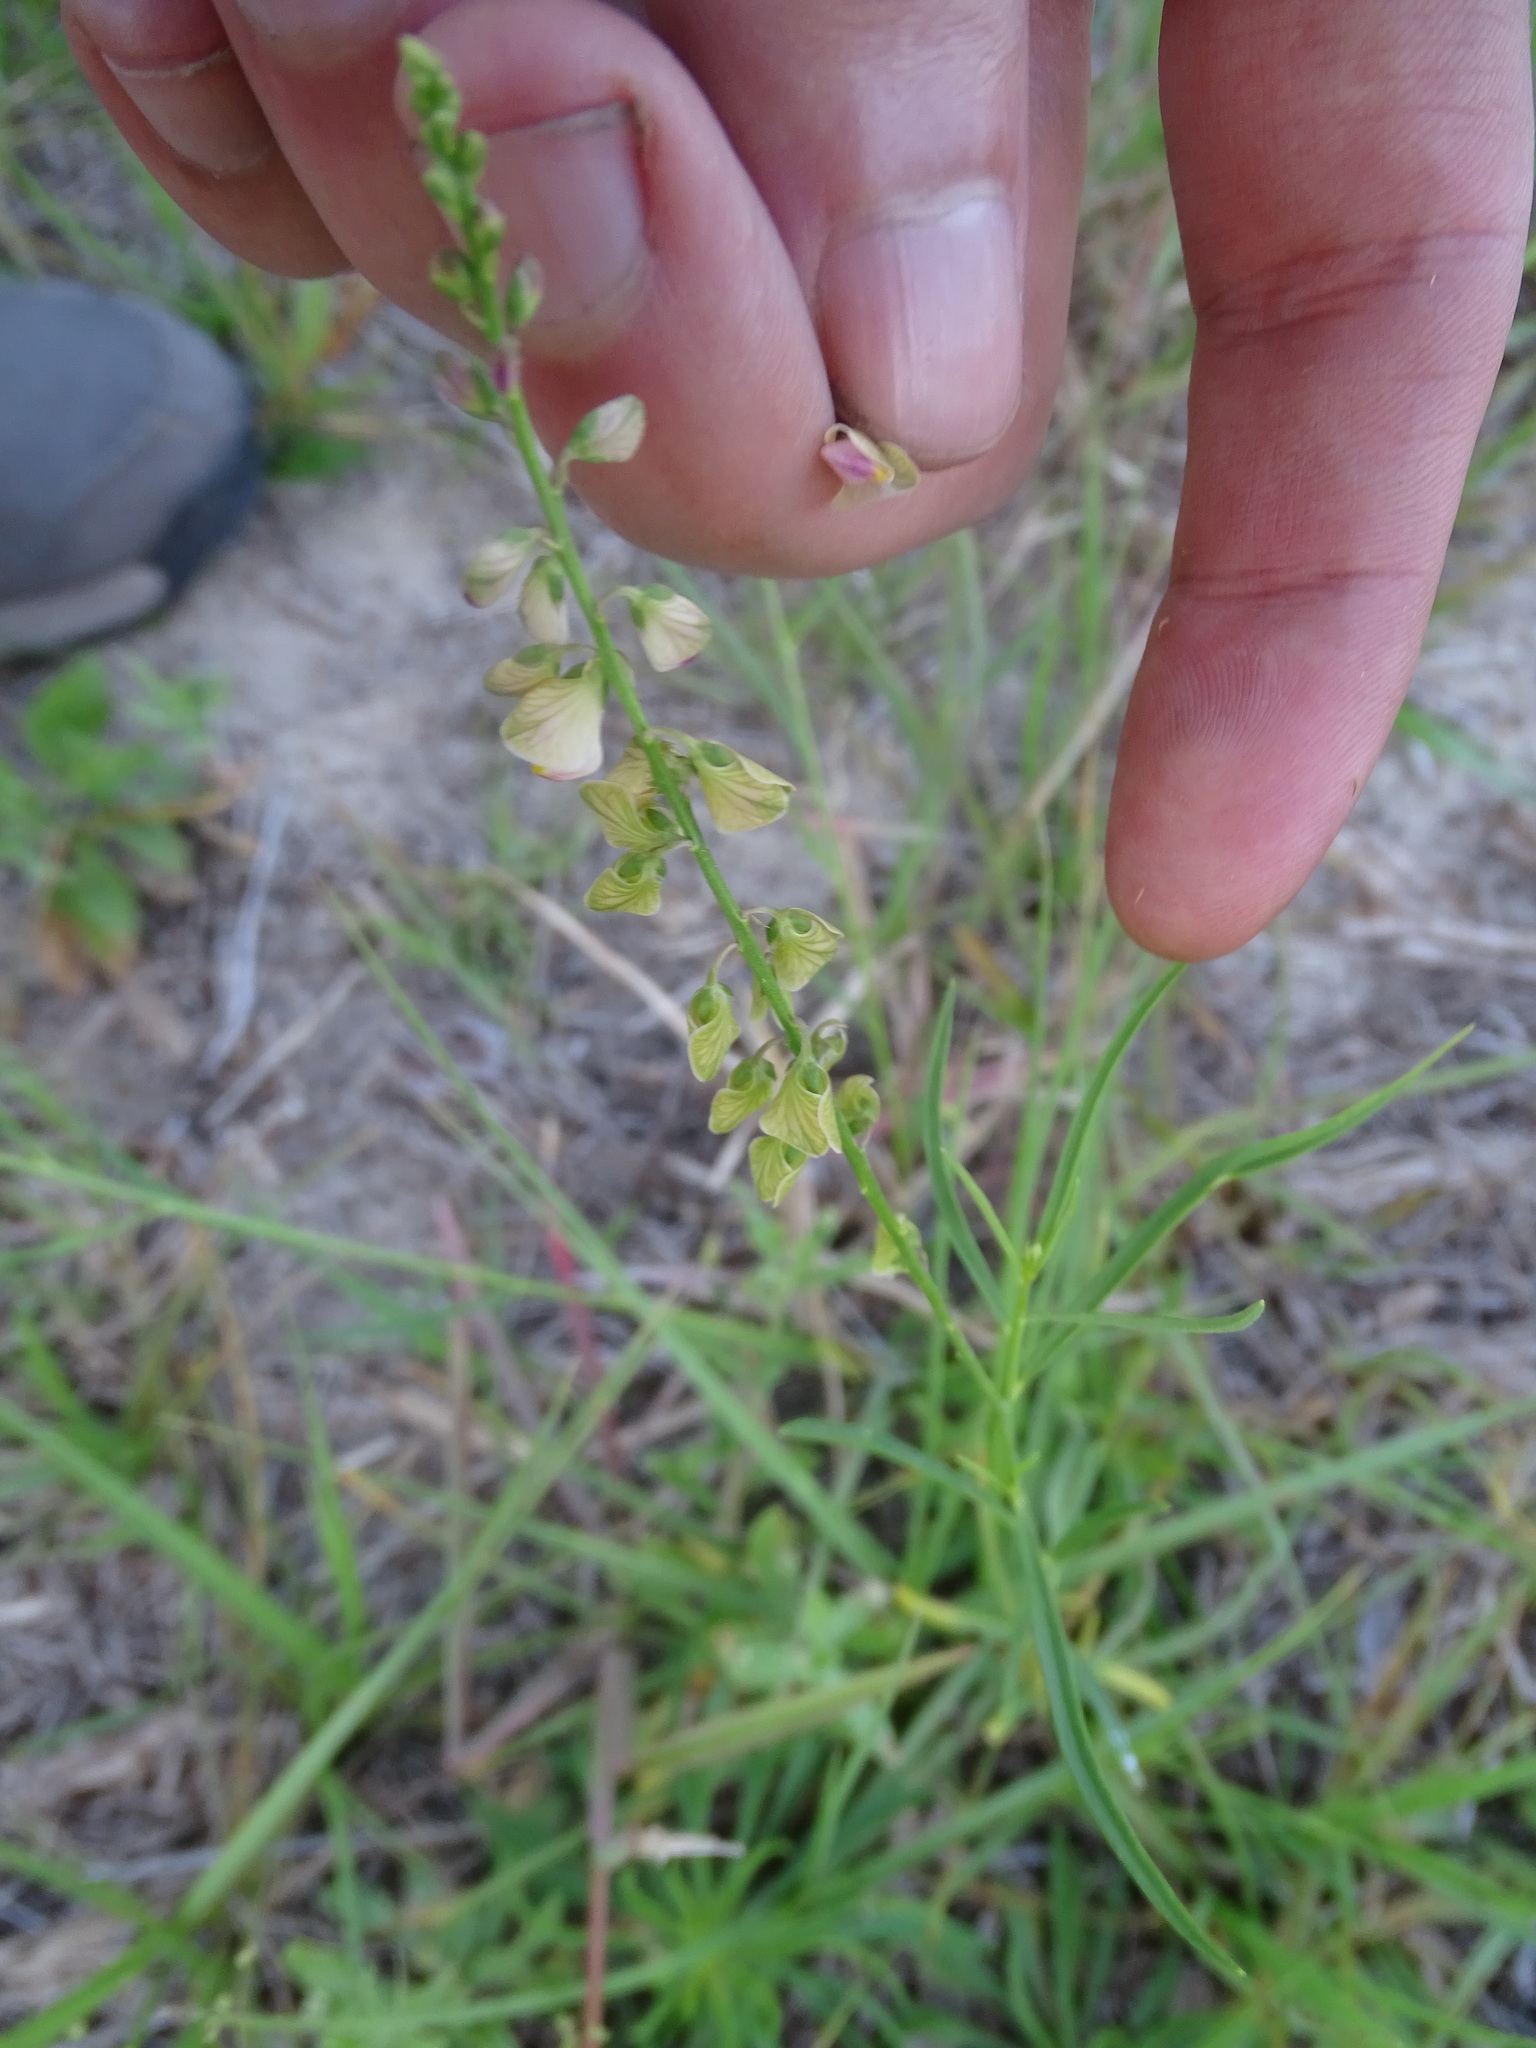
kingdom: Plantae
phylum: Tracheophyta
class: Magnoliopsida
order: Fabales
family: Polygalaceae
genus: Asemeia
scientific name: Asemeia grandiflora
